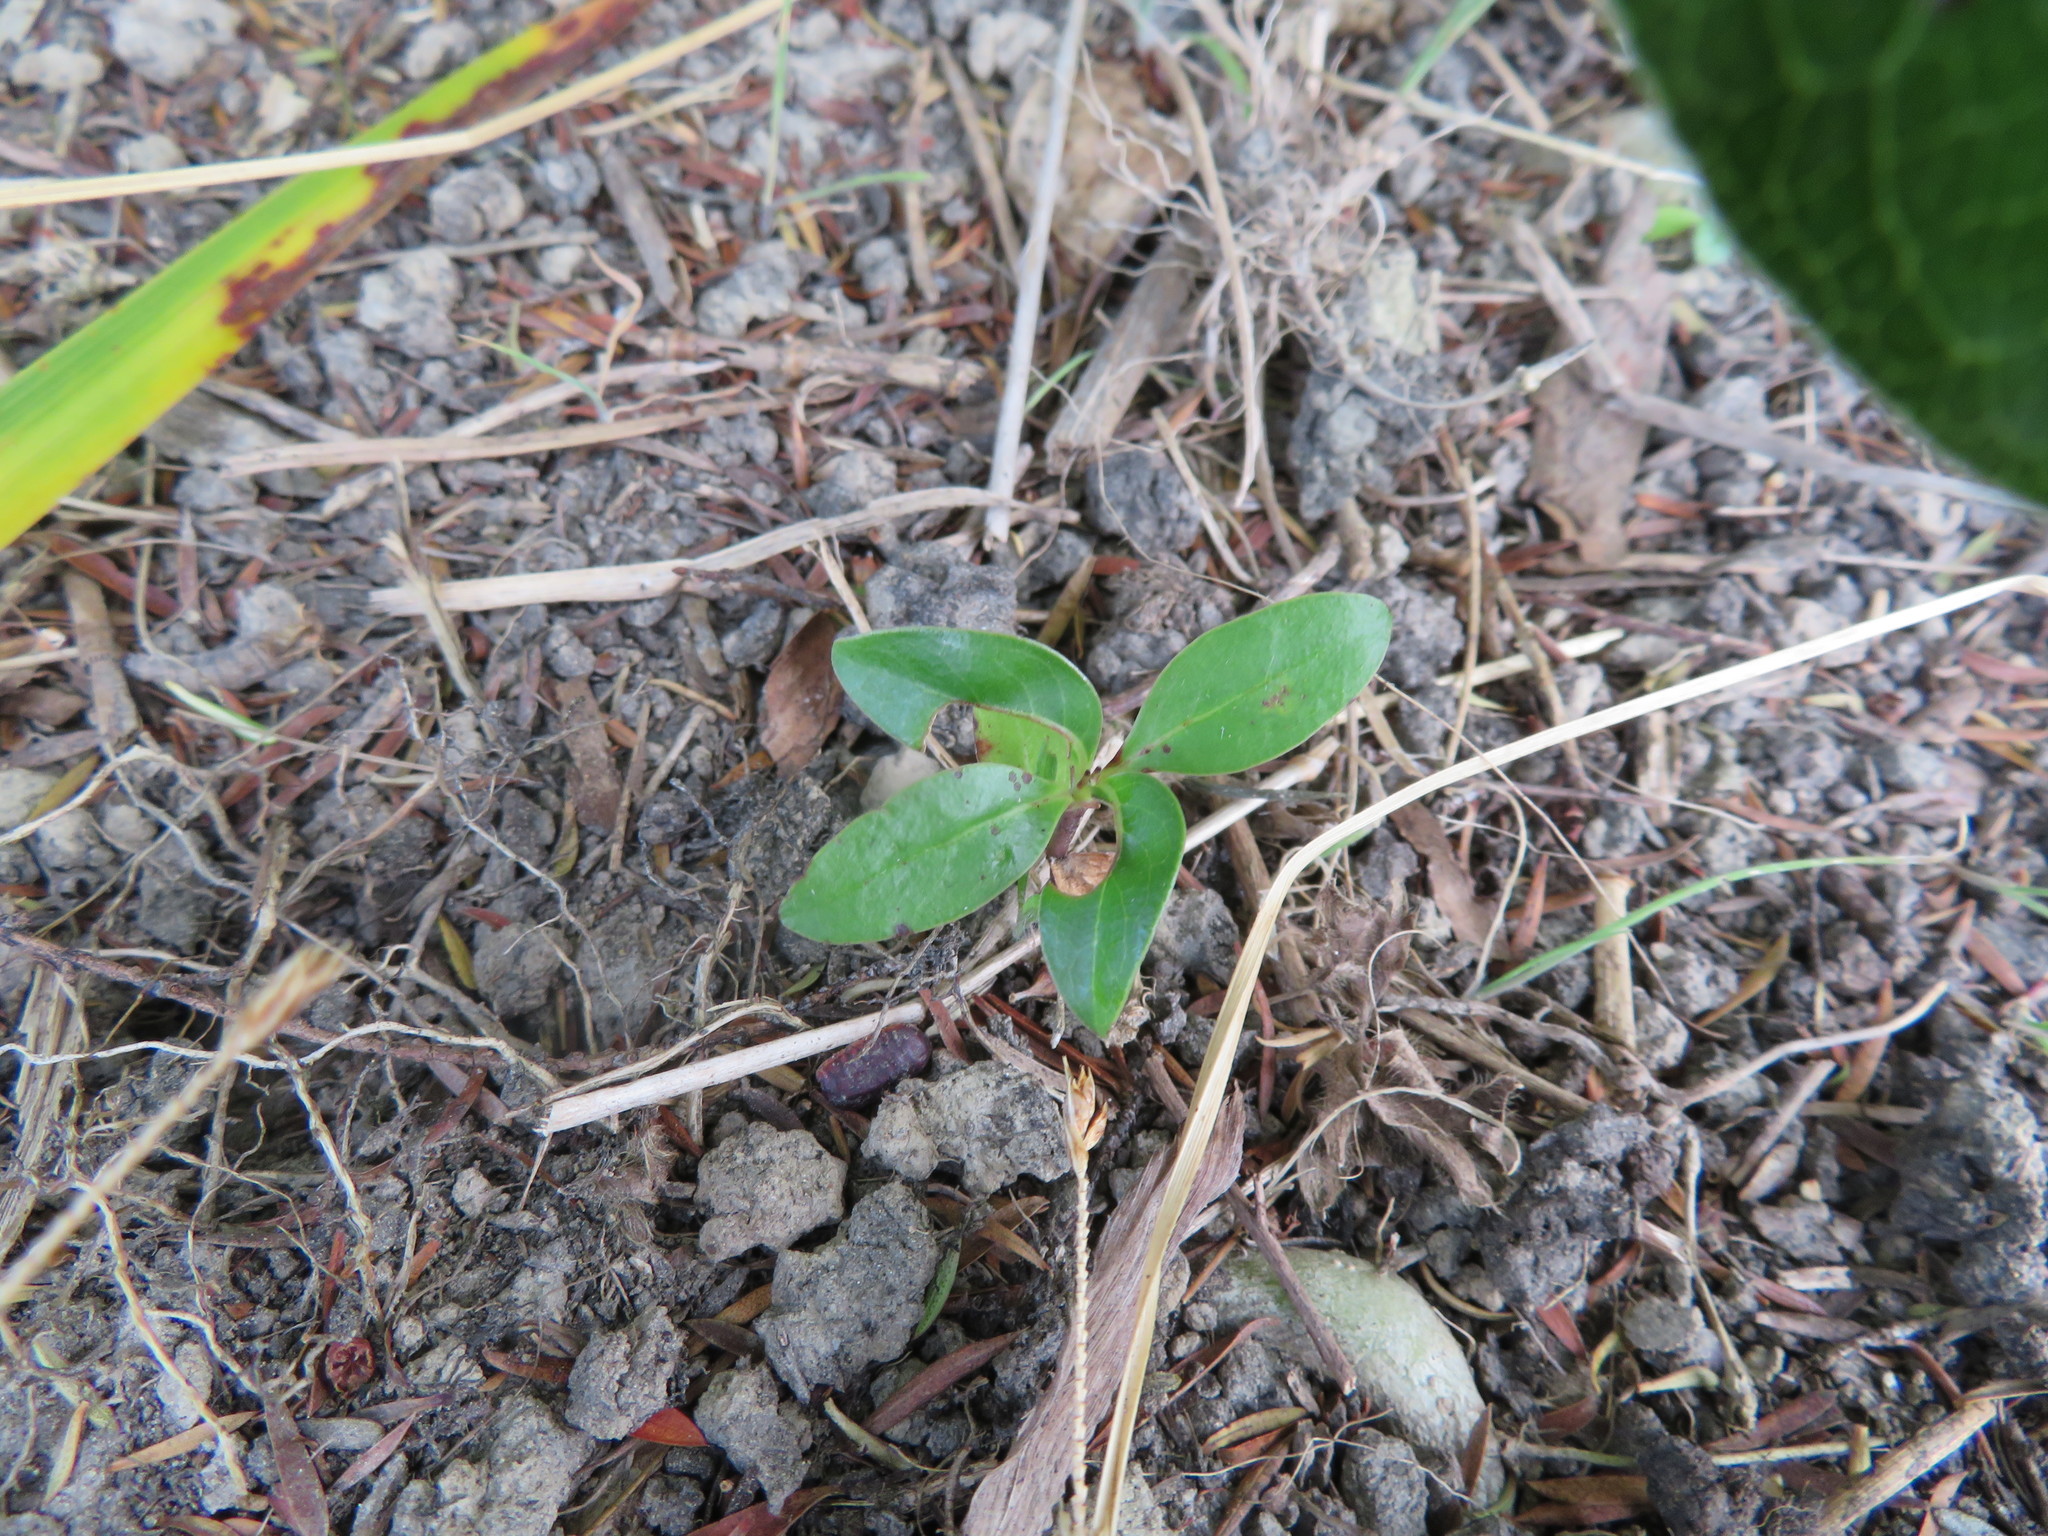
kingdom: Plantae
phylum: Tracheophyta
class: Magnoliopsida
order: Gentianales
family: Rubiaceae
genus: Coprosma
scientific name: Coprosma robusta
